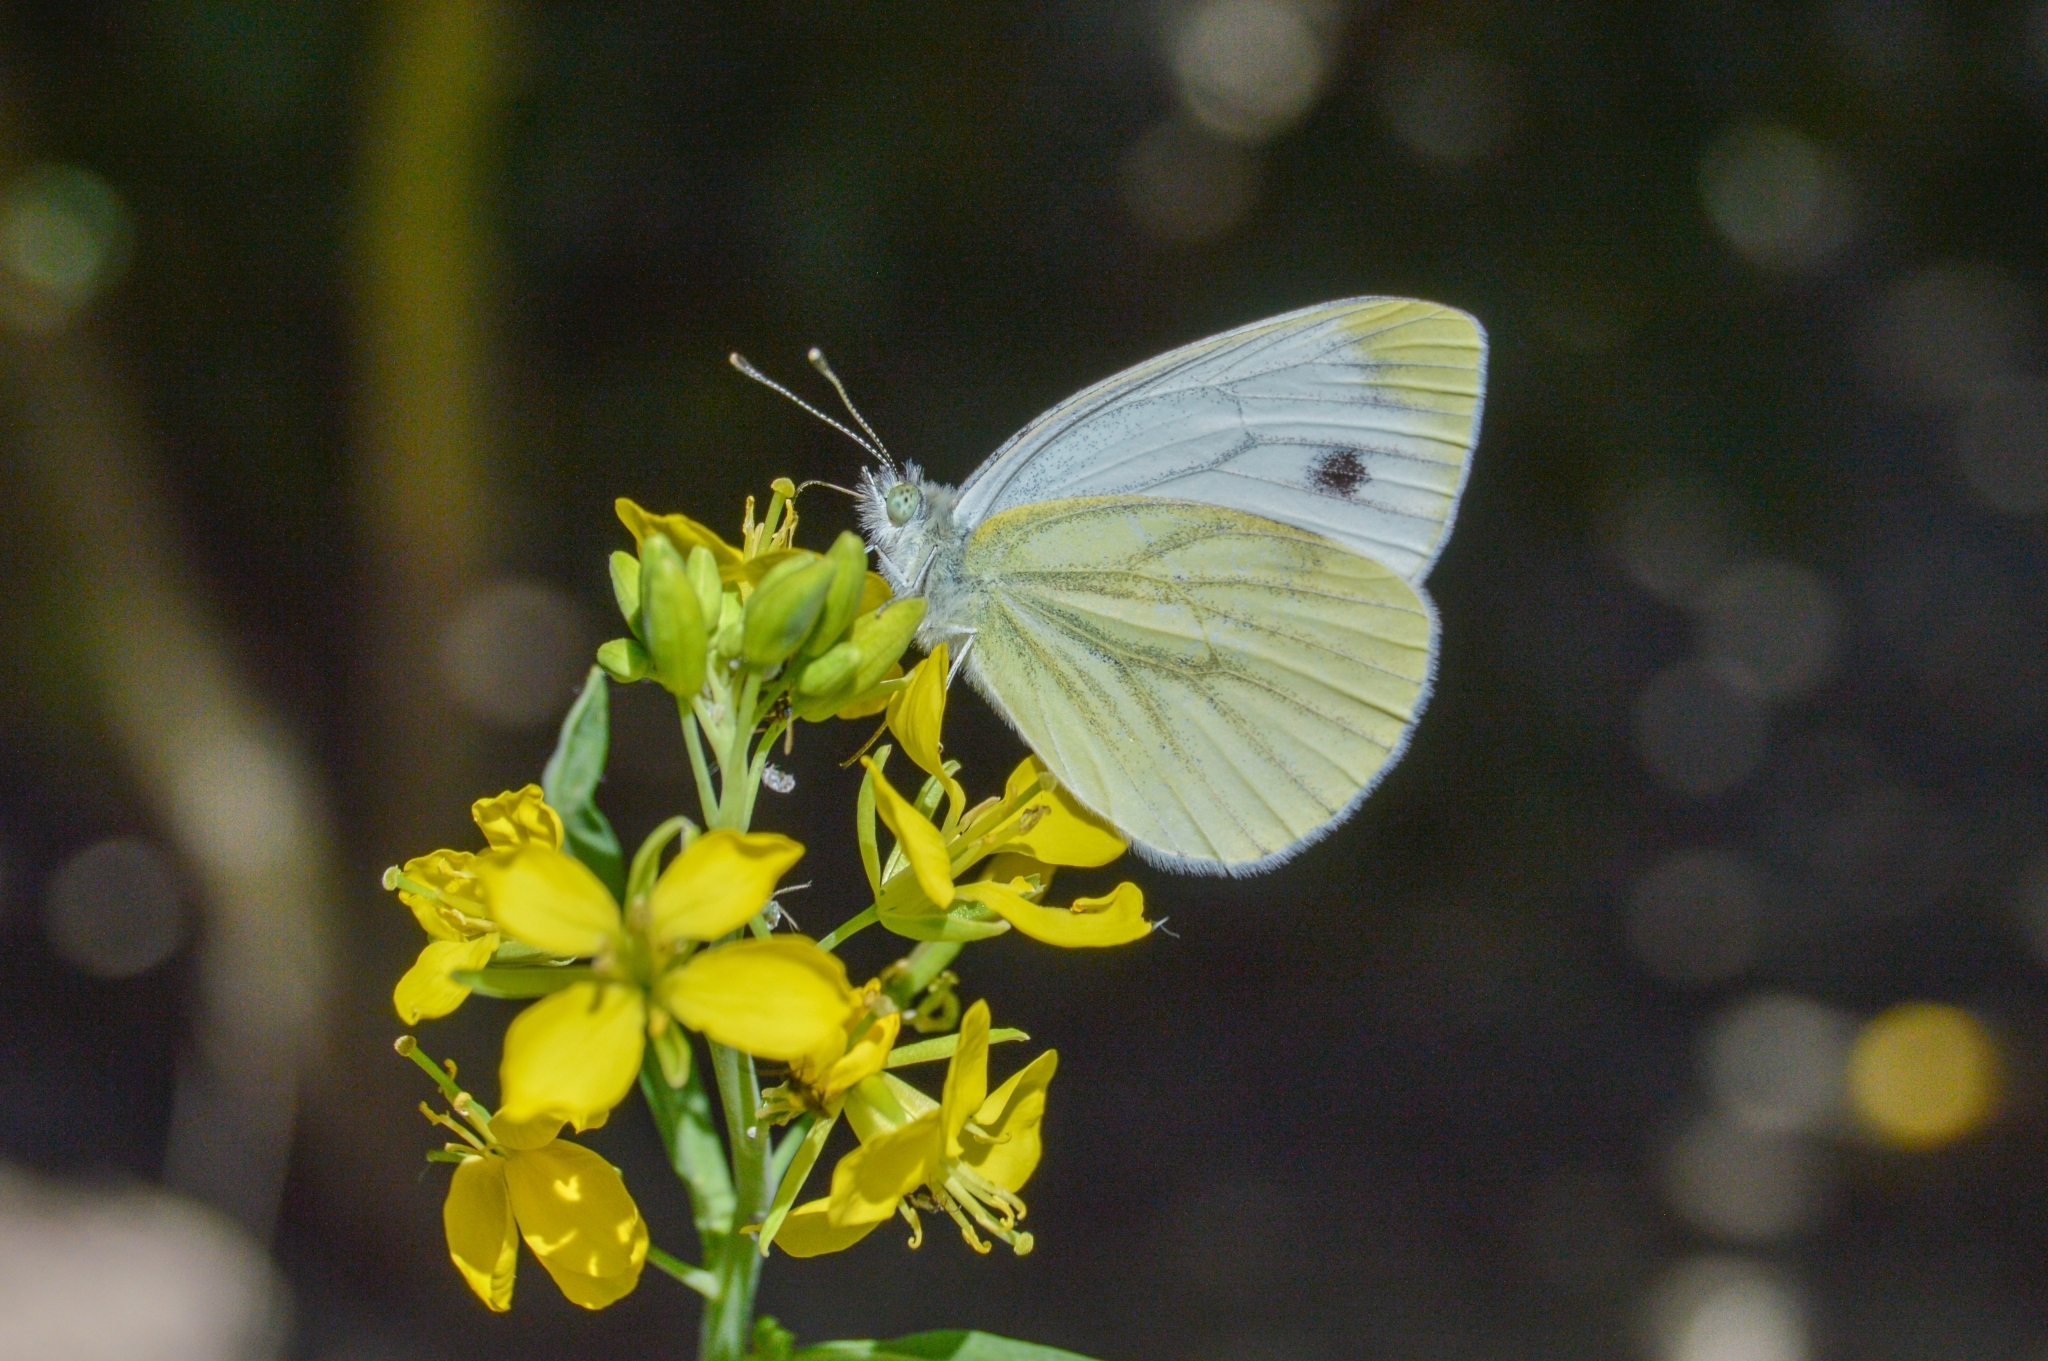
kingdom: Animalia
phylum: Arthropoda
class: Insecta
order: Lepidoptera
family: Pieridae
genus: Pieris
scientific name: Pieris napi
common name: Green-veined white
